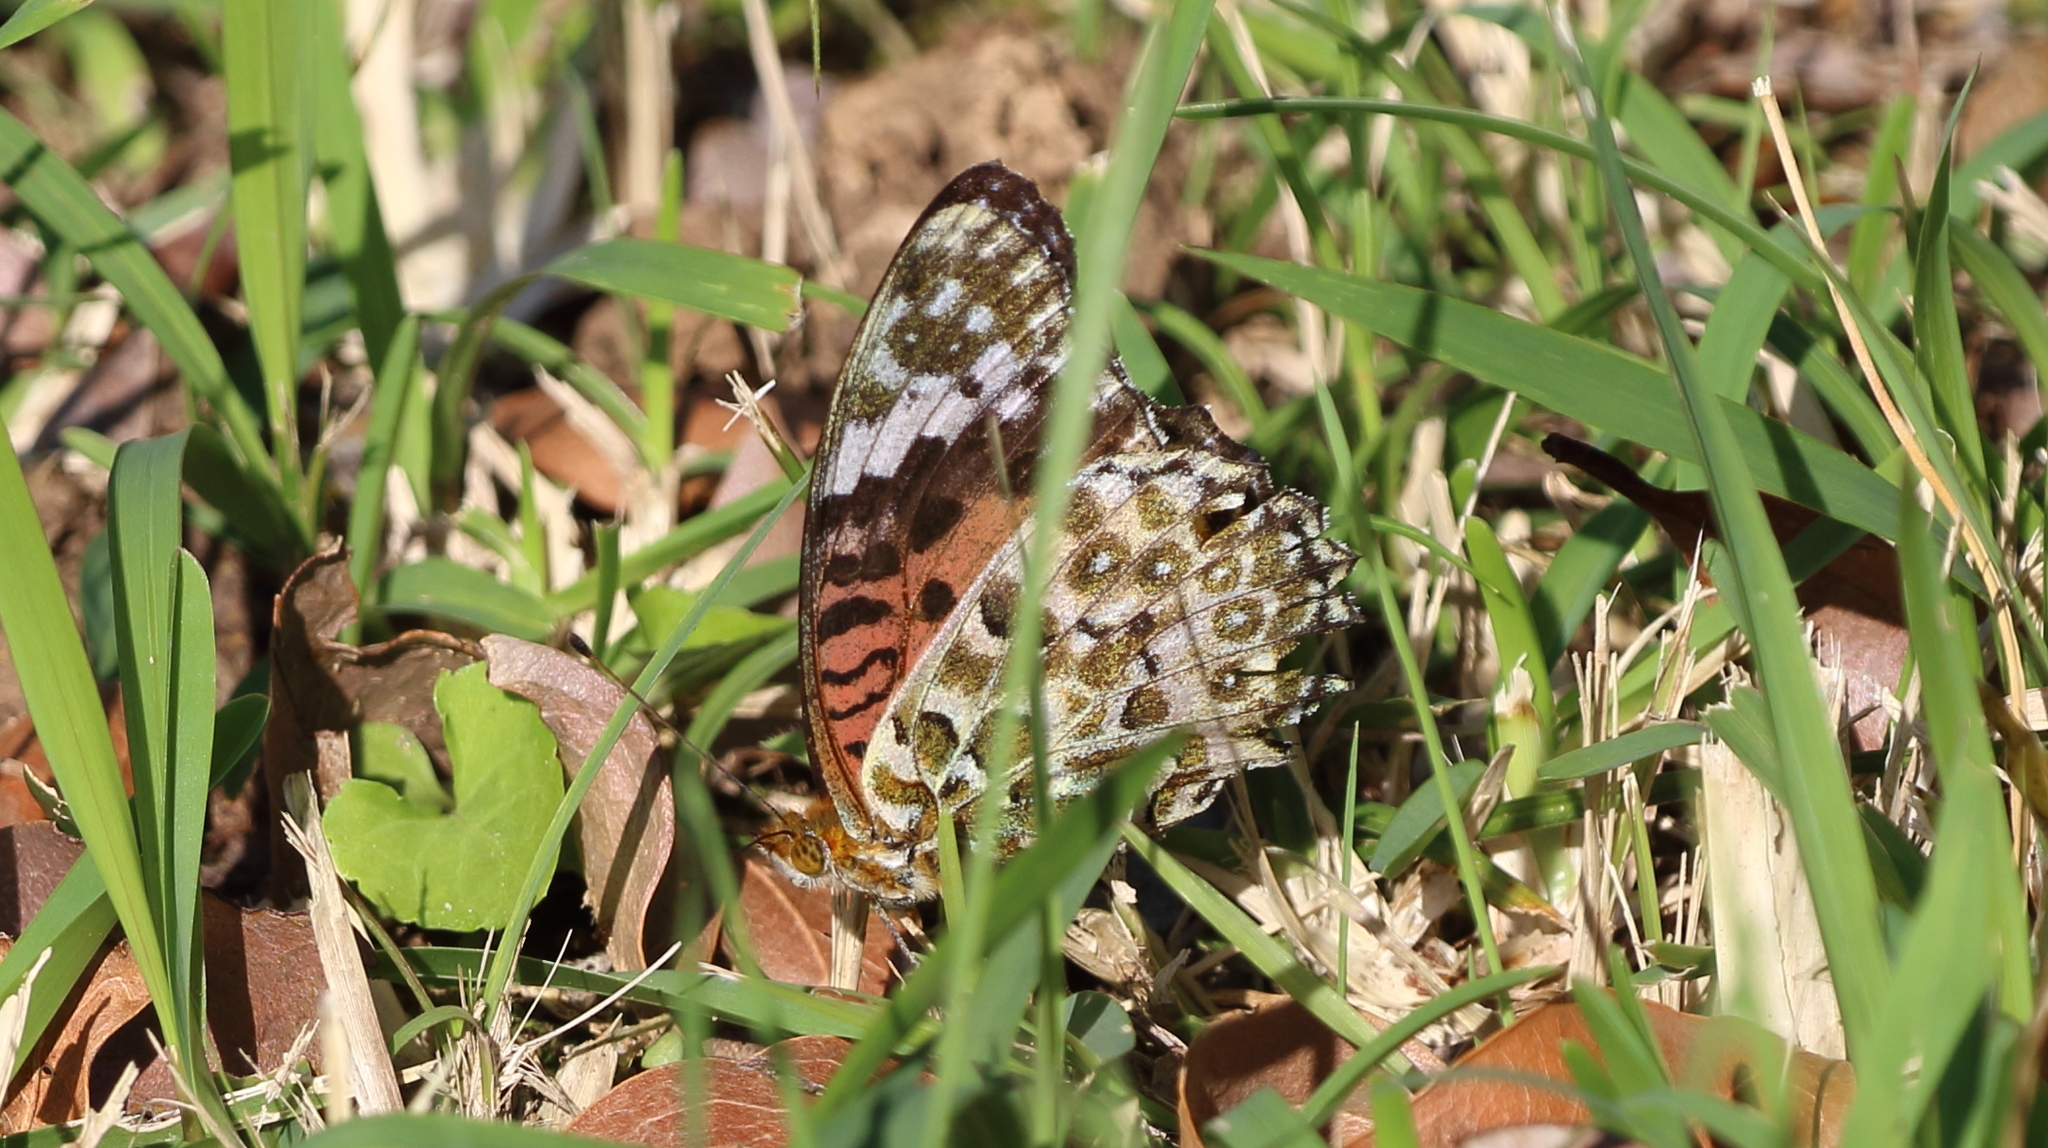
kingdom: Animalia
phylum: Arthropoda
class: Insecta
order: Lepidoptera
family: Nymphalidae
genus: Argynnis
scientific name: Argynnis hyperbius
